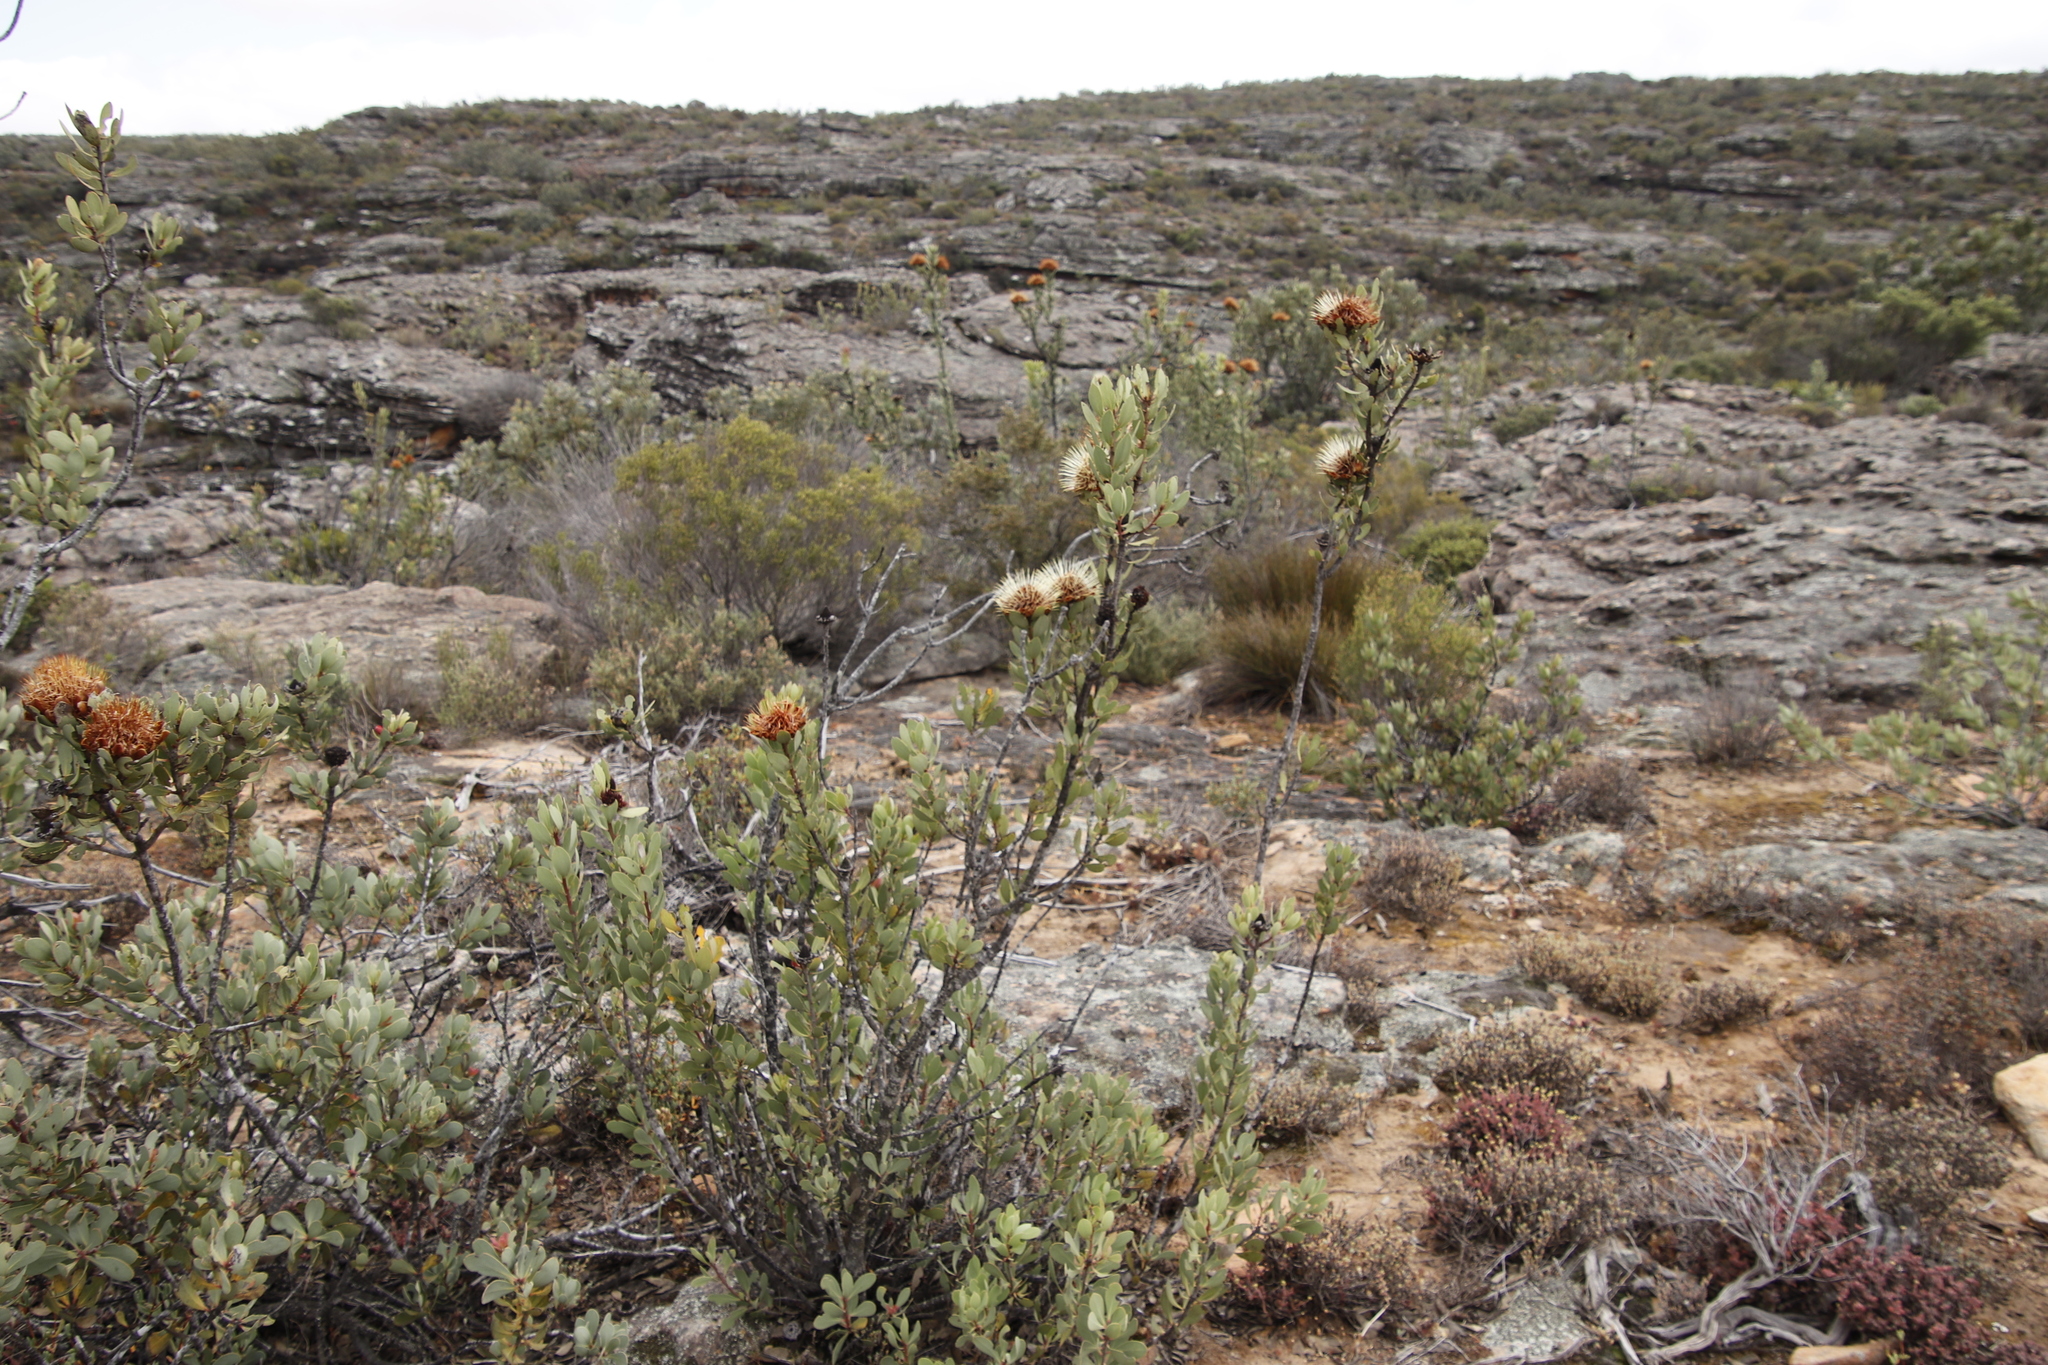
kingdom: Plantae
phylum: Tracheophyta
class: Magnoliopsida
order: Proteales
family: Proteaceae
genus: Protea
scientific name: Protea glabra
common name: Chestnut sugarbush
